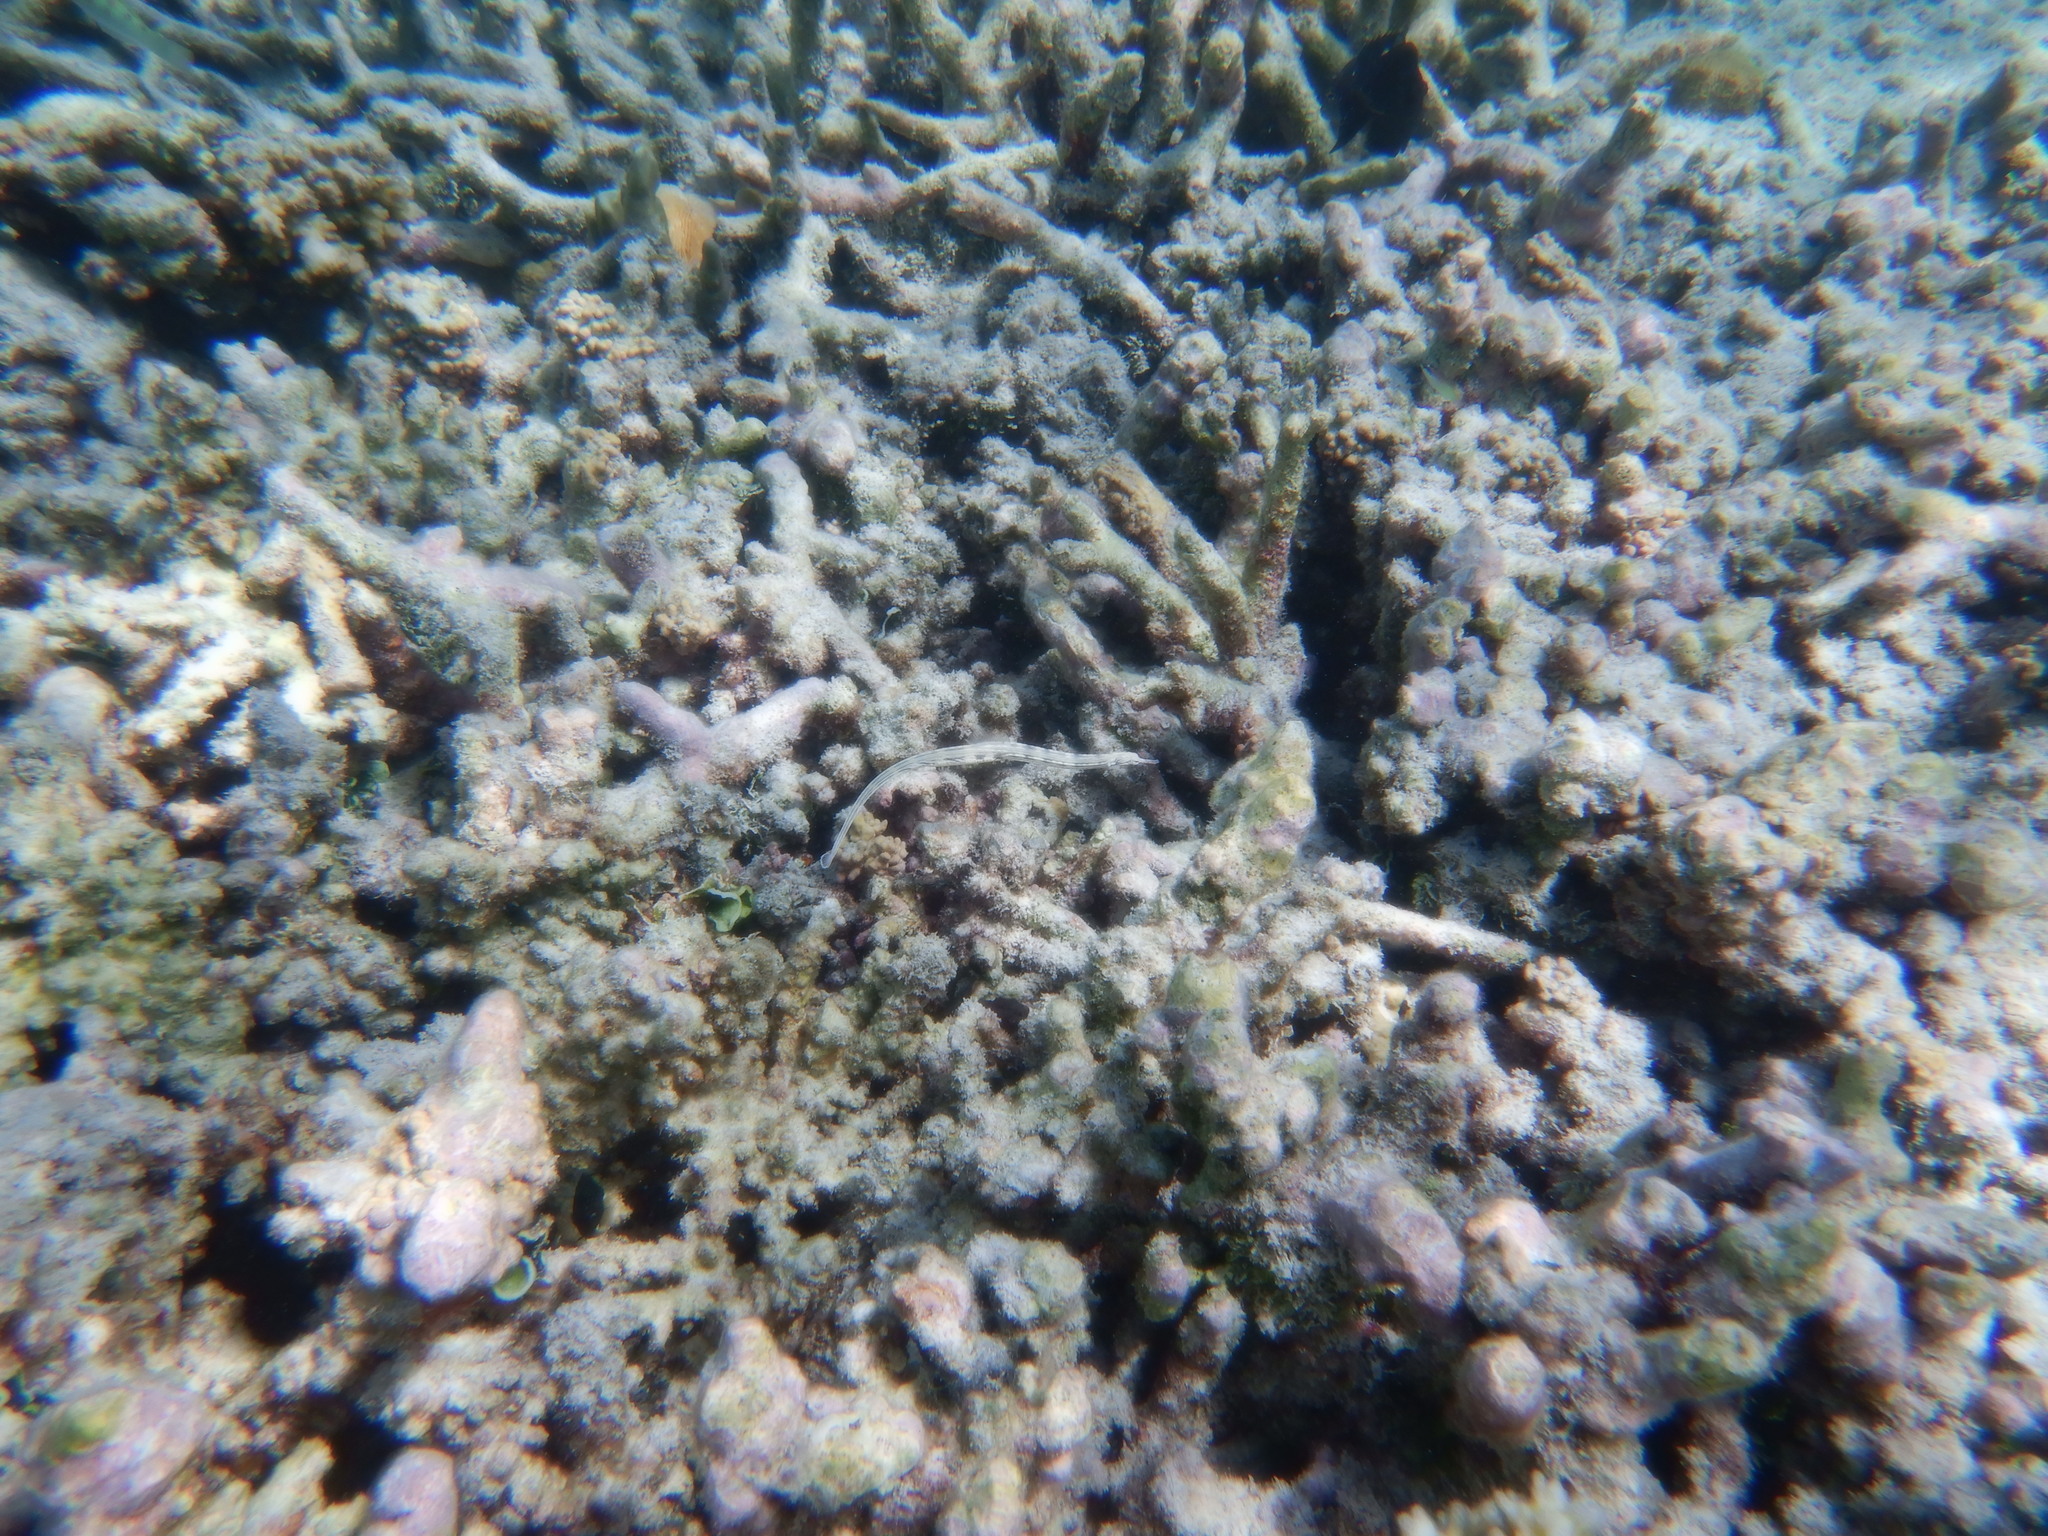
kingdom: Animalia
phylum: Chordata
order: Syngnathiformes
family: Syngnathidae
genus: Corythoichthys
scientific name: Corythoichthys haematopterus
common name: Bloodspot pipefish
